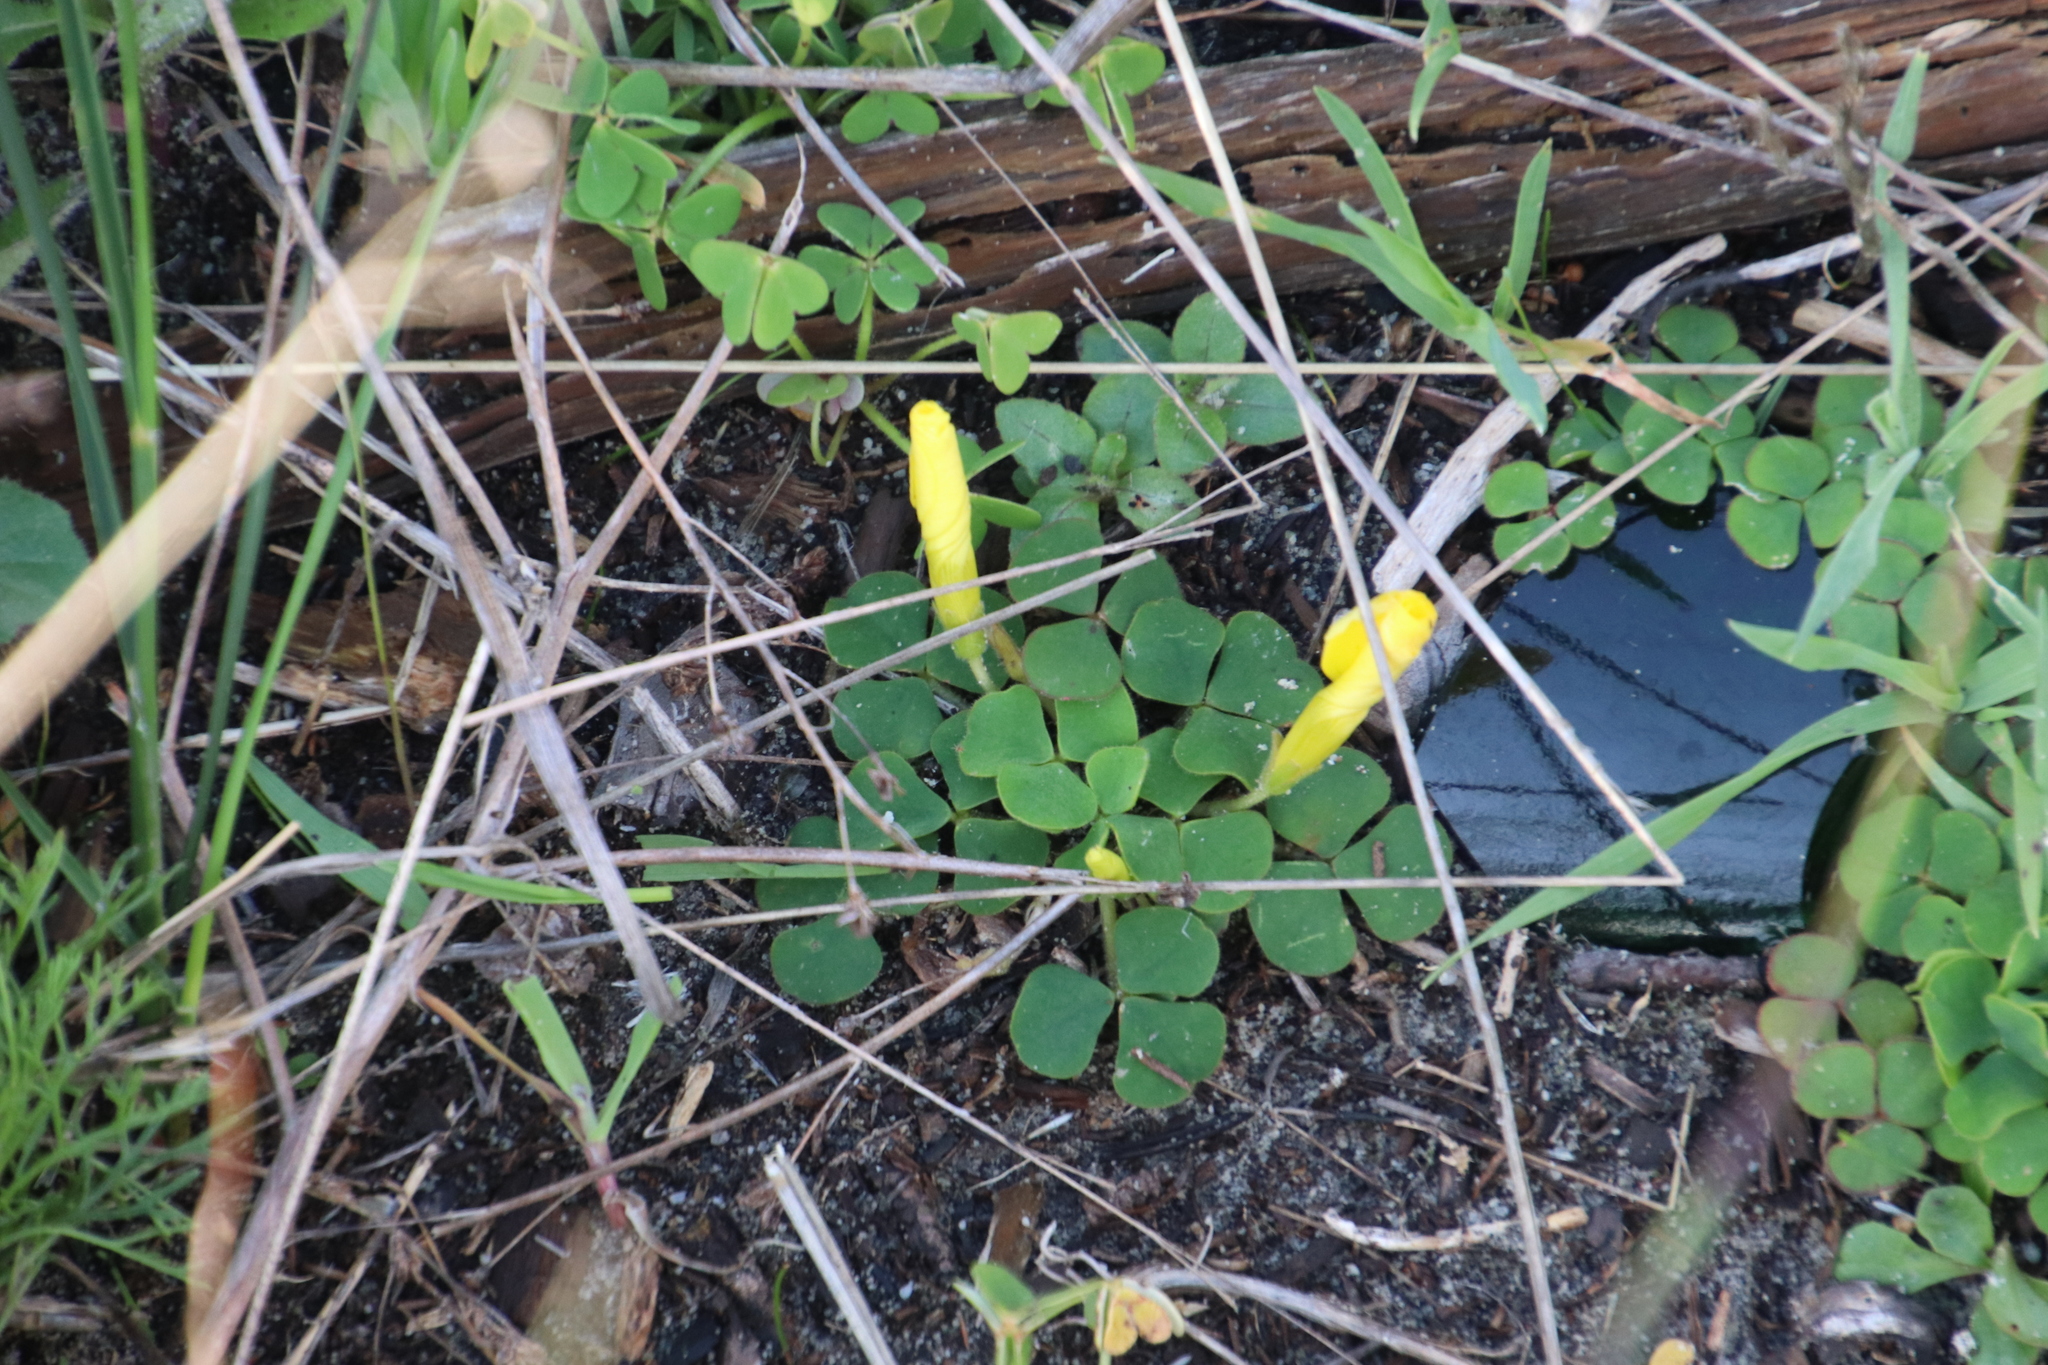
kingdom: Plantae
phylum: Tracheophyta
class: Magnoliopsida
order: Oxalidales
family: Oxalidaceae
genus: Oxalis
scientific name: Oxalis luteola
